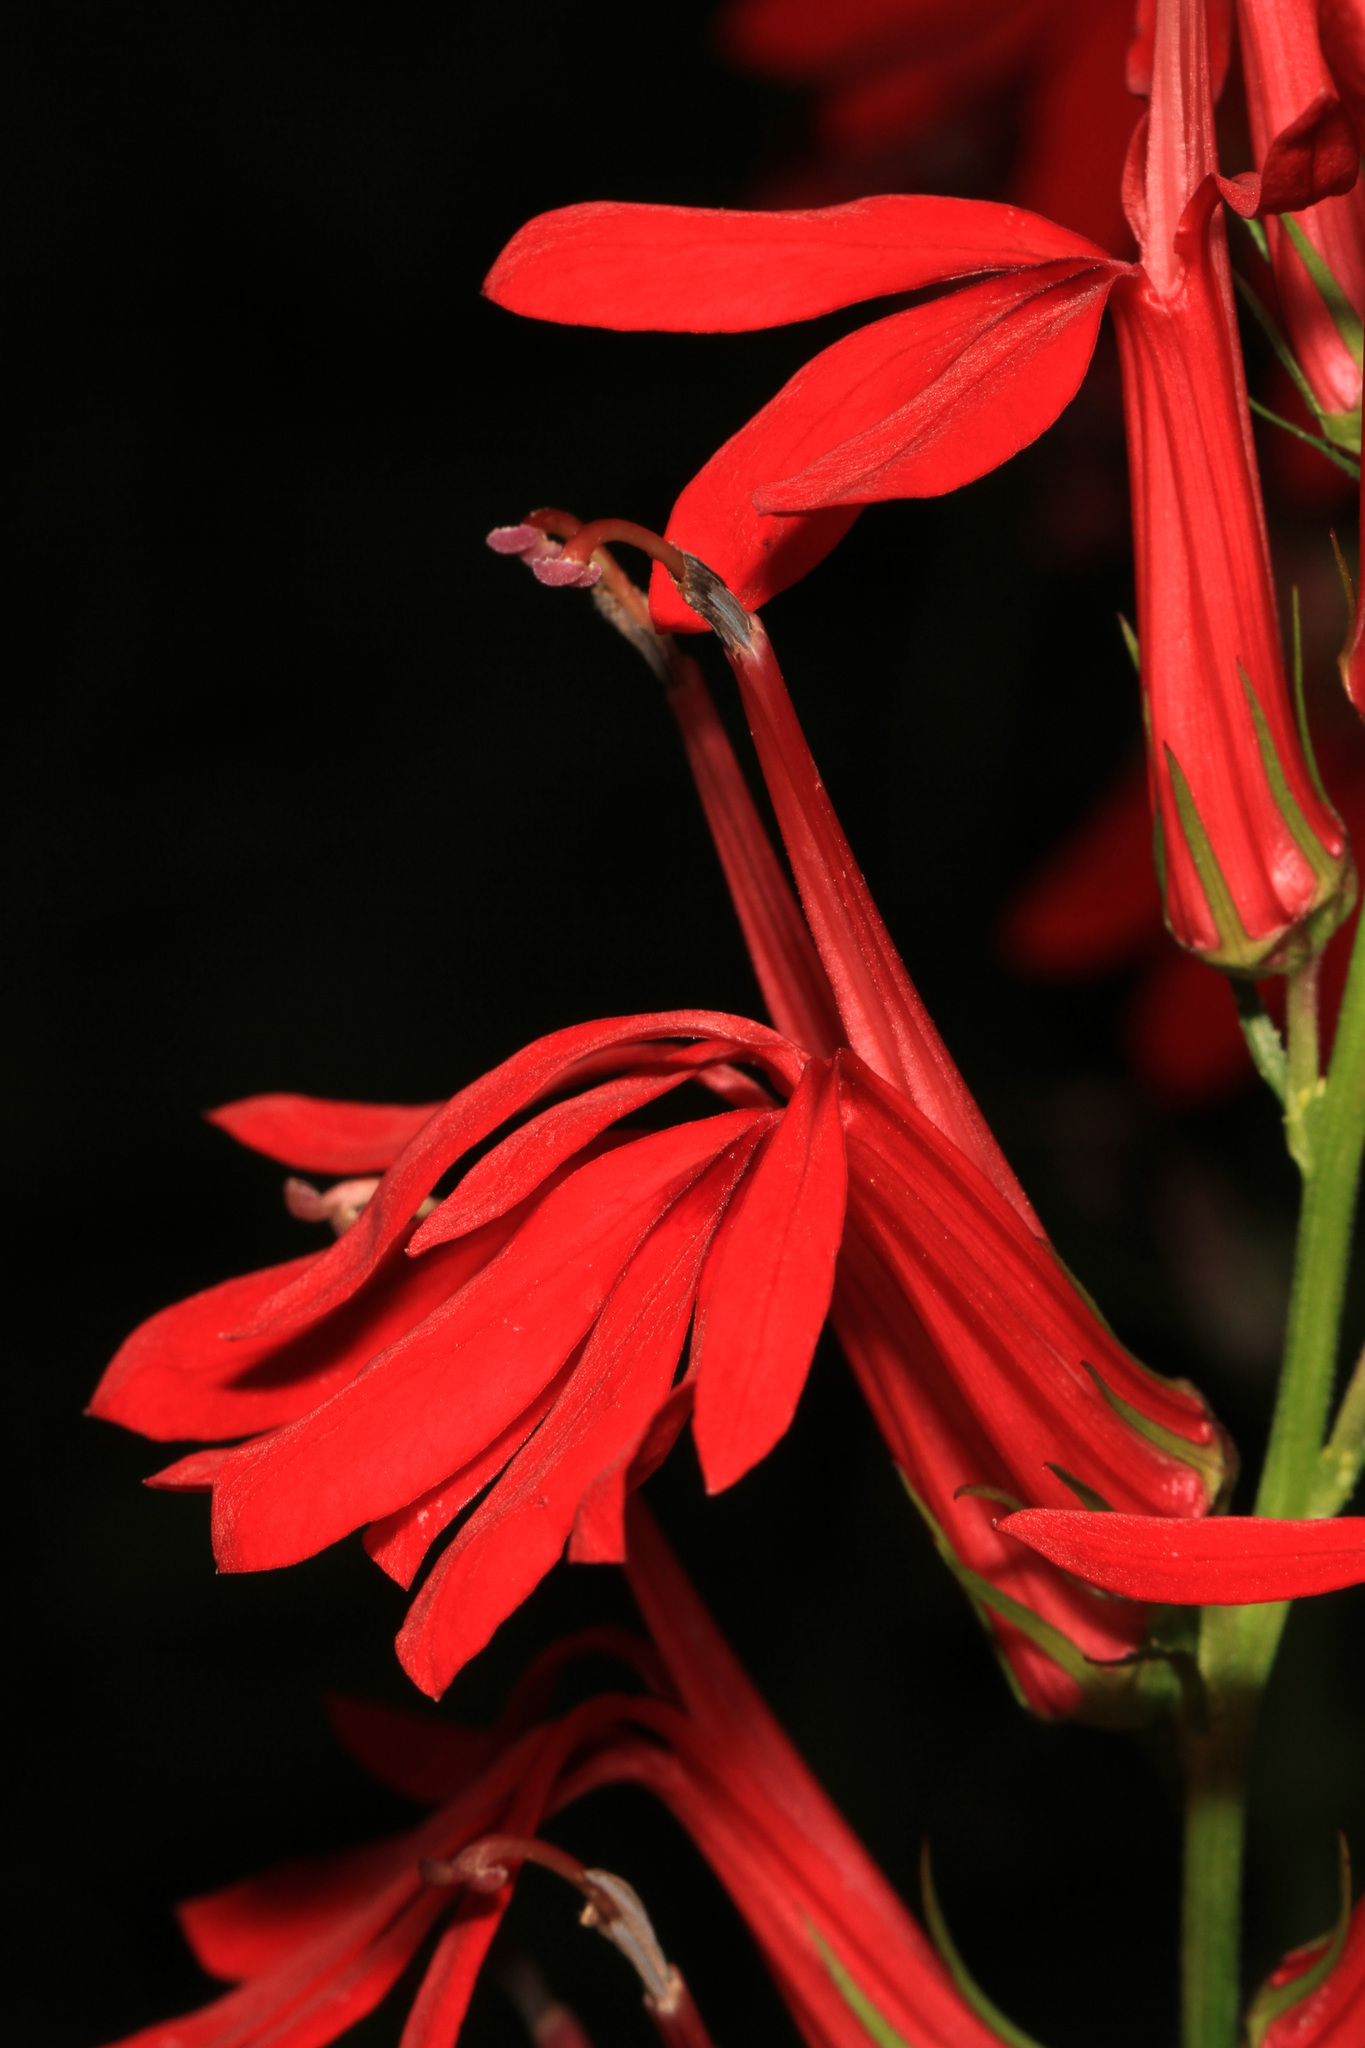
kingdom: Plantae
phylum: Tracheophyta
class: Magnoliopsida
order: Asterales
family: Campanulaceae
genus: Lobelia
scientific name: Lobelia cardinalis
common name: Cardinal flower
